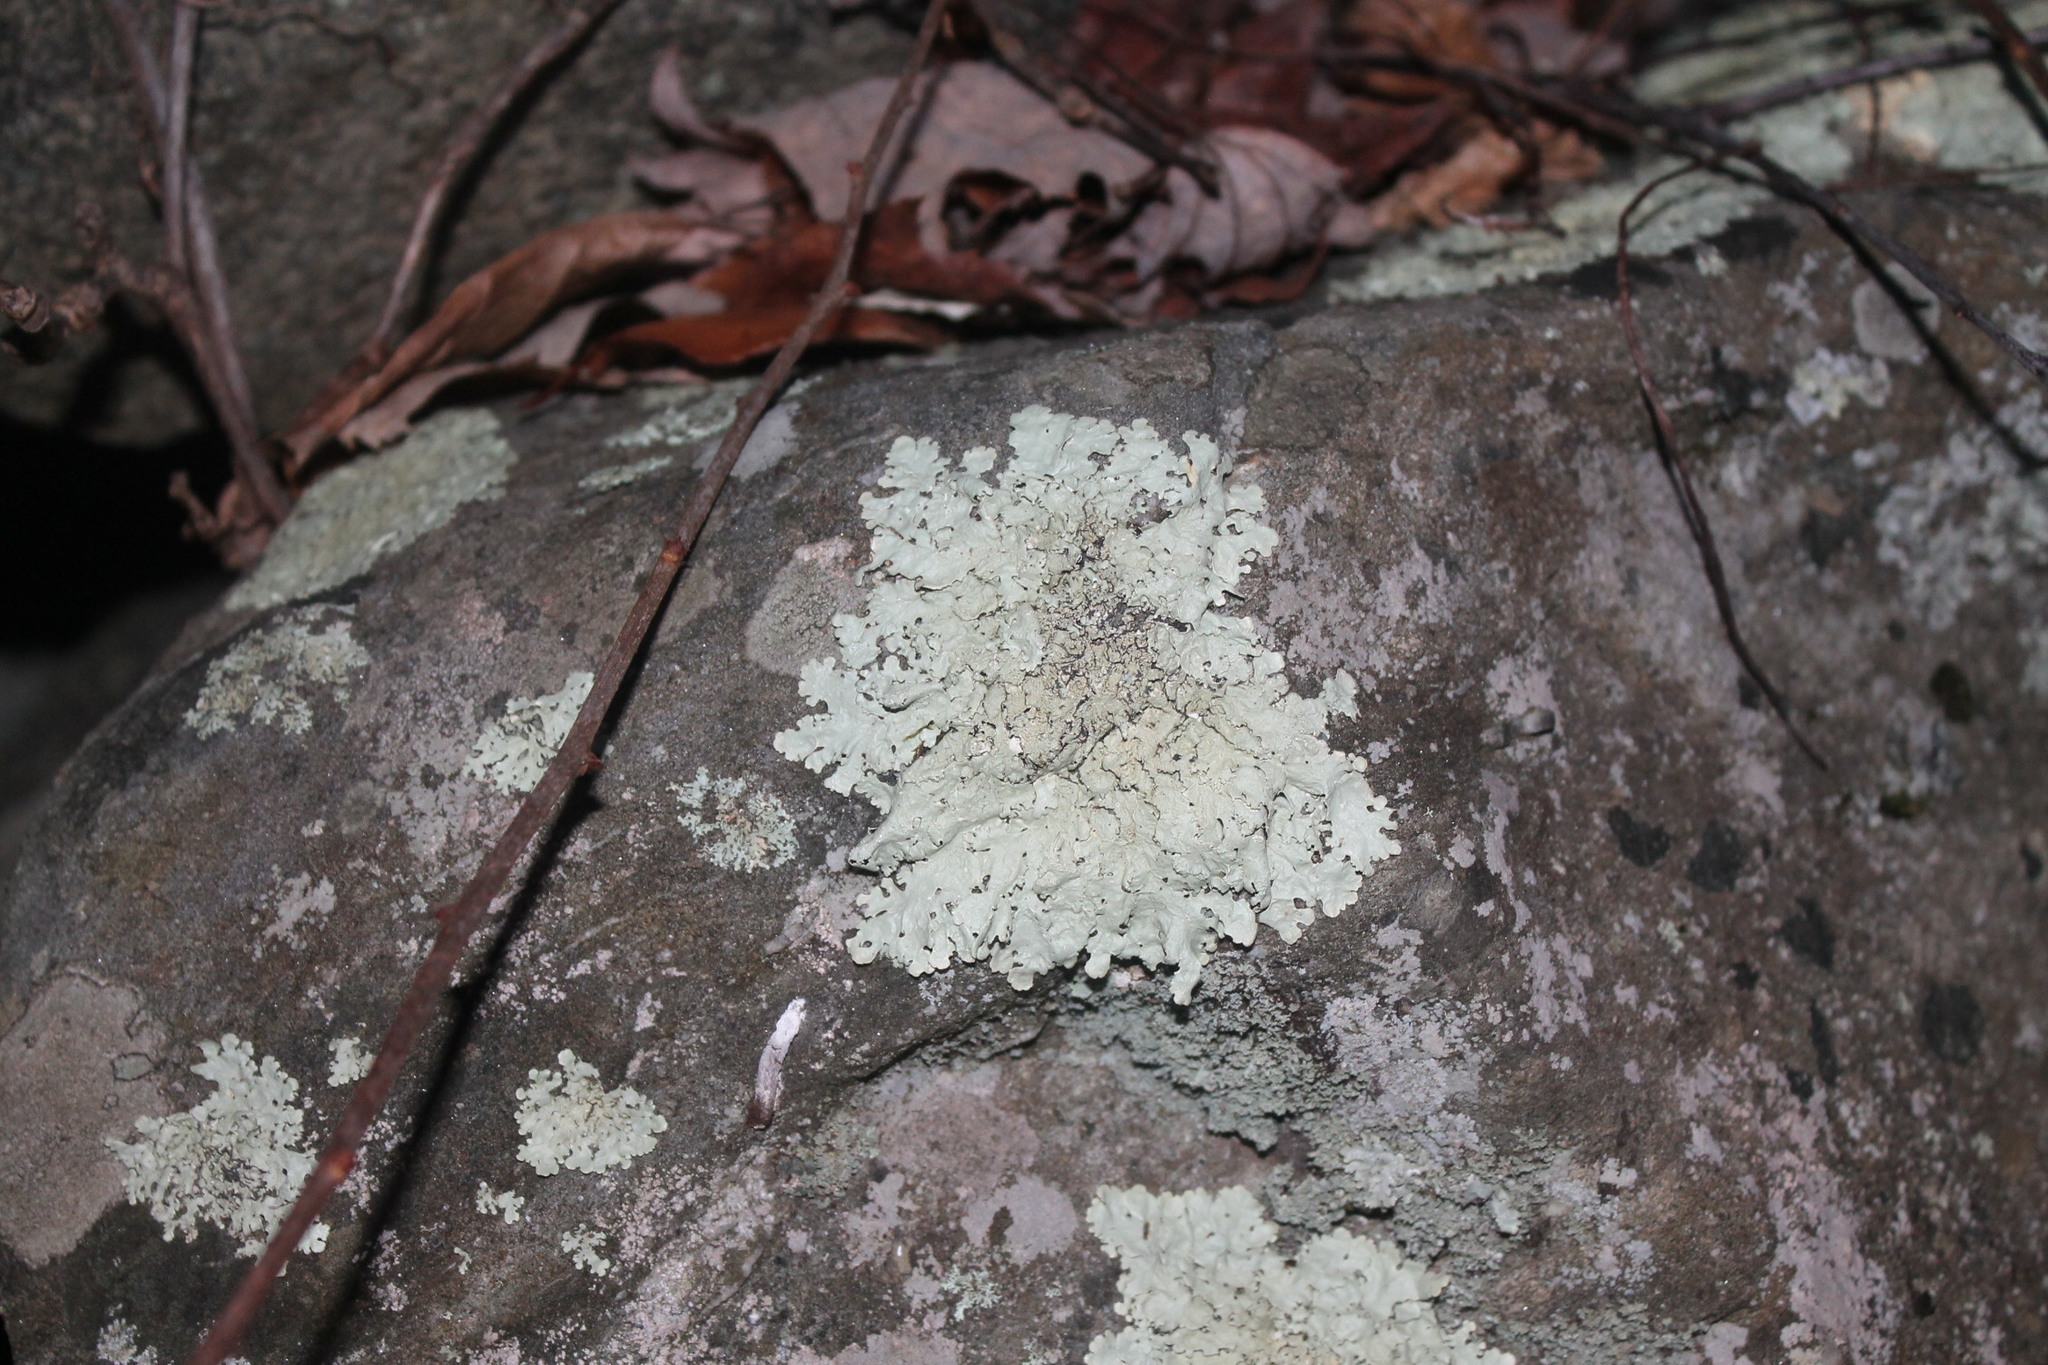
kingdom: Fungi
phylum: Ascomycota
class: Lecanoromycetes
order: Lecanorales
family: Parmeliaceae
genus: Flavoparmelia
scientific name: Flavoparmelia baltimorensis
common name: Rock greenshield
